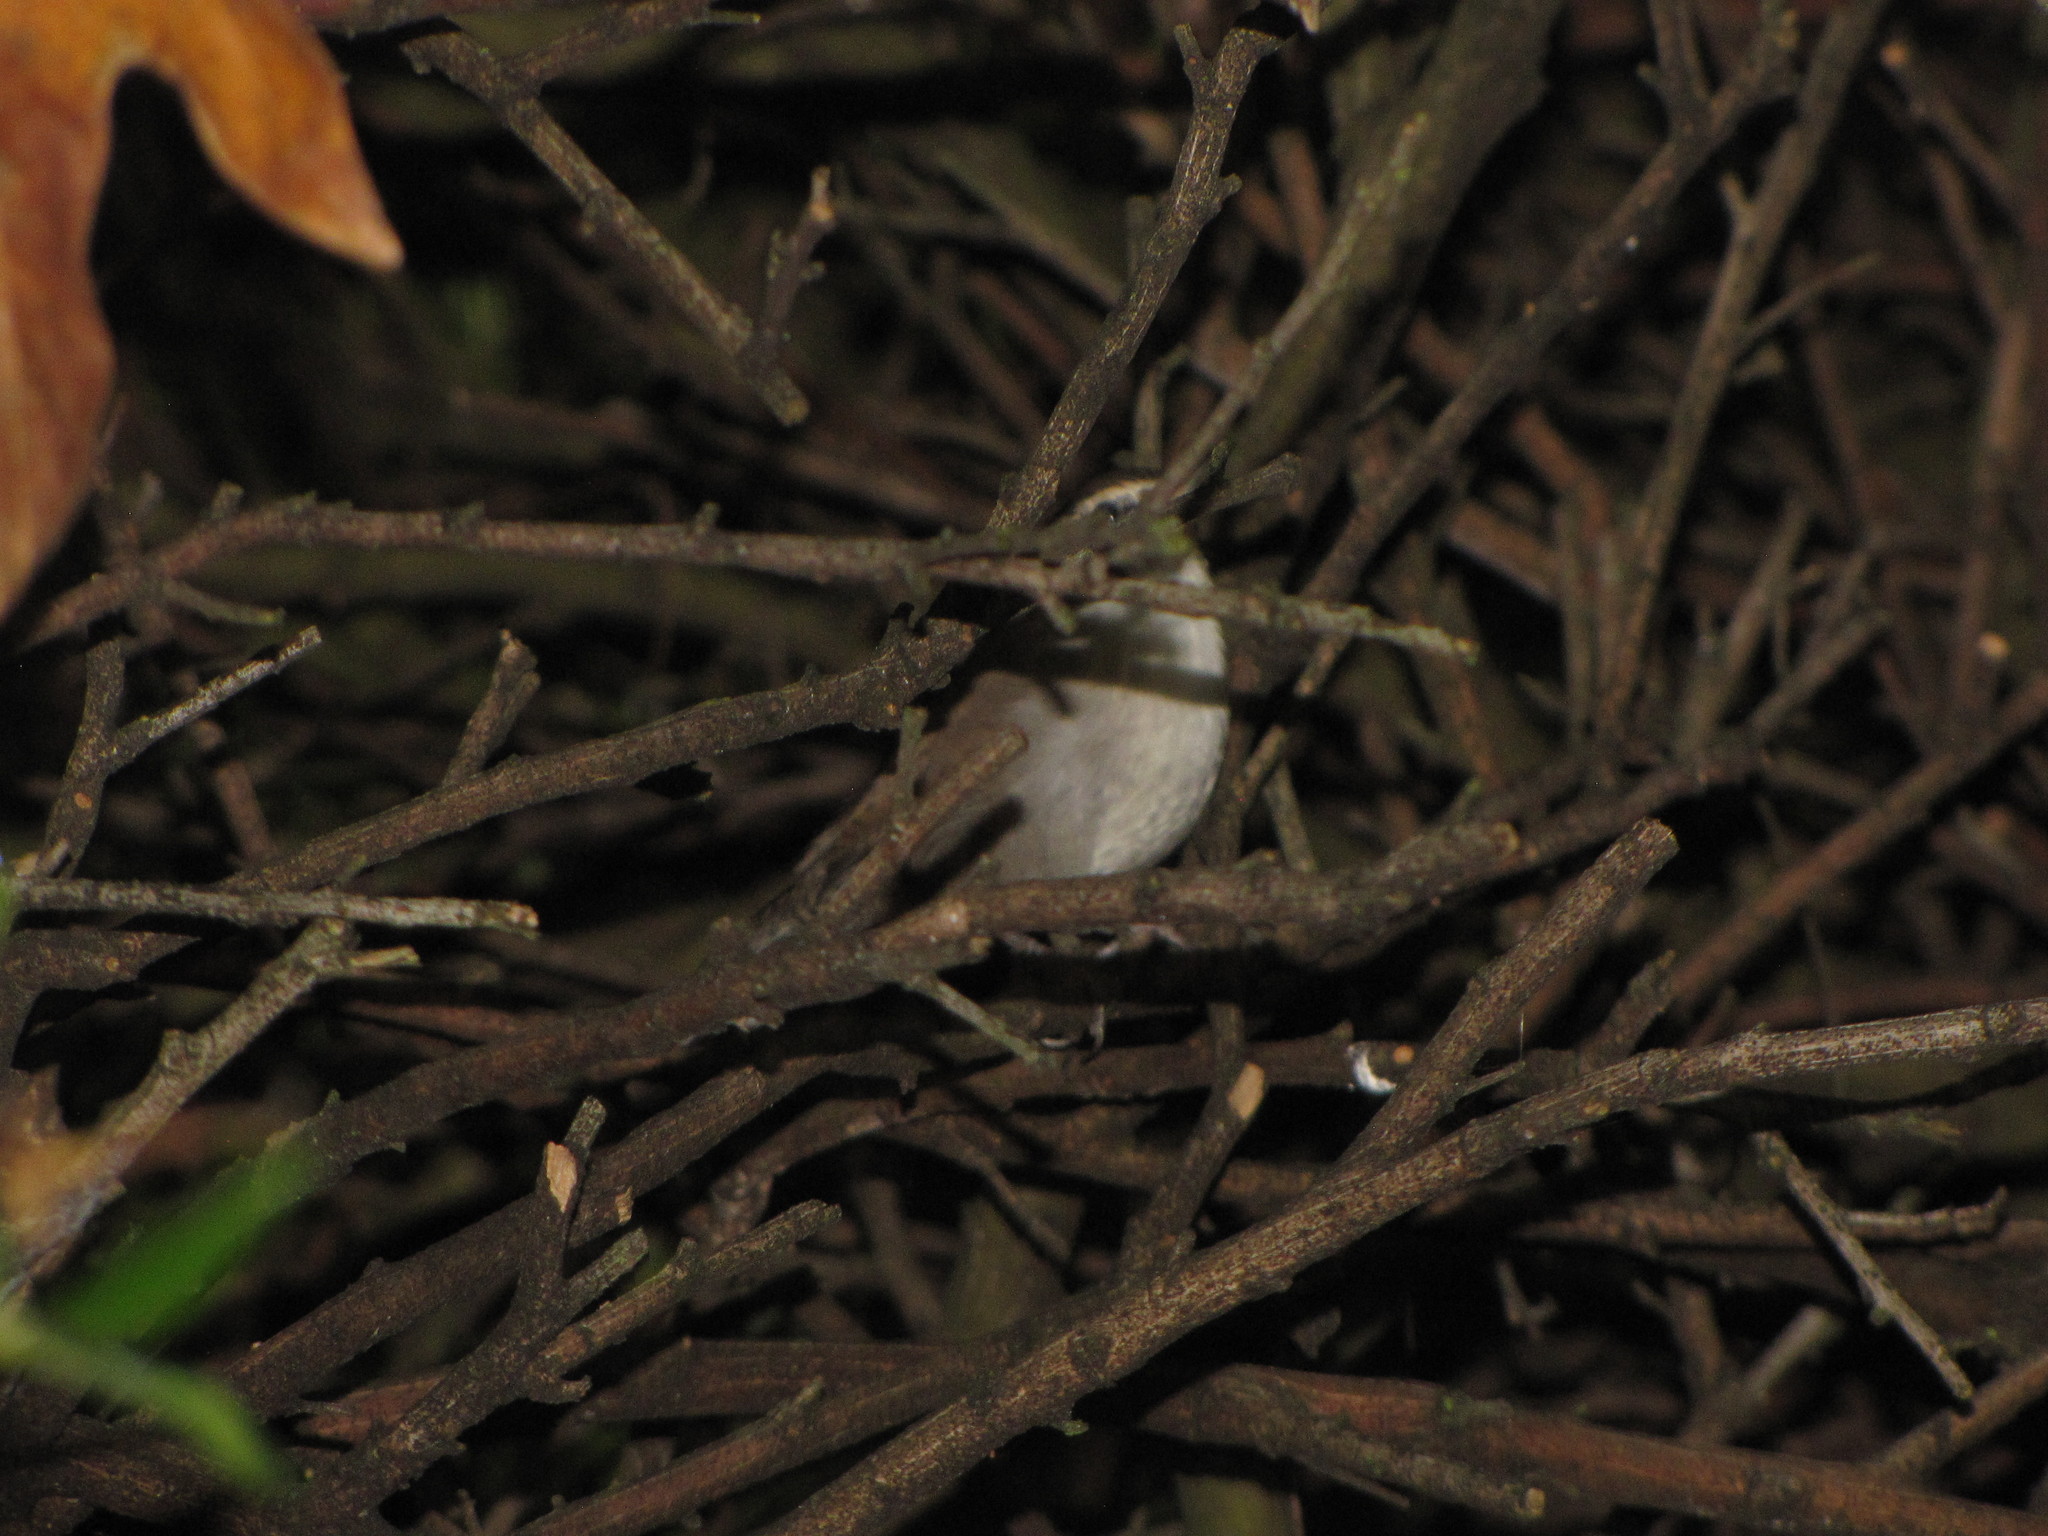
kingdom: Animalia
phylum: Chordata
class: Aves
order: Passeriformes
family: Troglodytidae
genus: Thryomanes
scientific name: Thryomanes bewickii
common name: Bewick's wren
